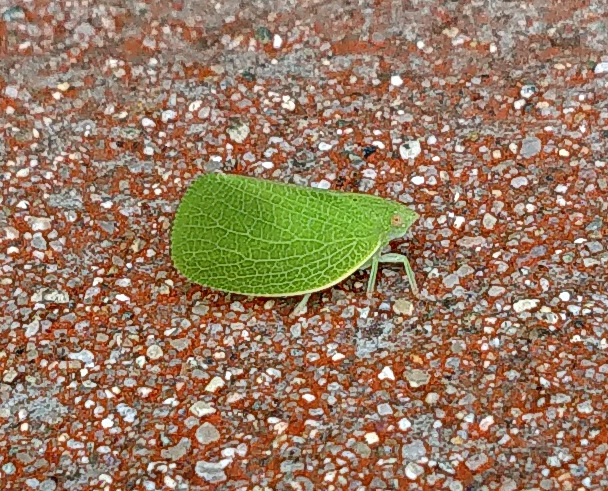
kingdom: Animalia
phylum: Arthropoda
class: Insecta
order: Hemiptera
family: Acanaloniidae
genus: Acanalonia
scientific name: Acanalonia conica
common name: Green cone-headed planthopper
